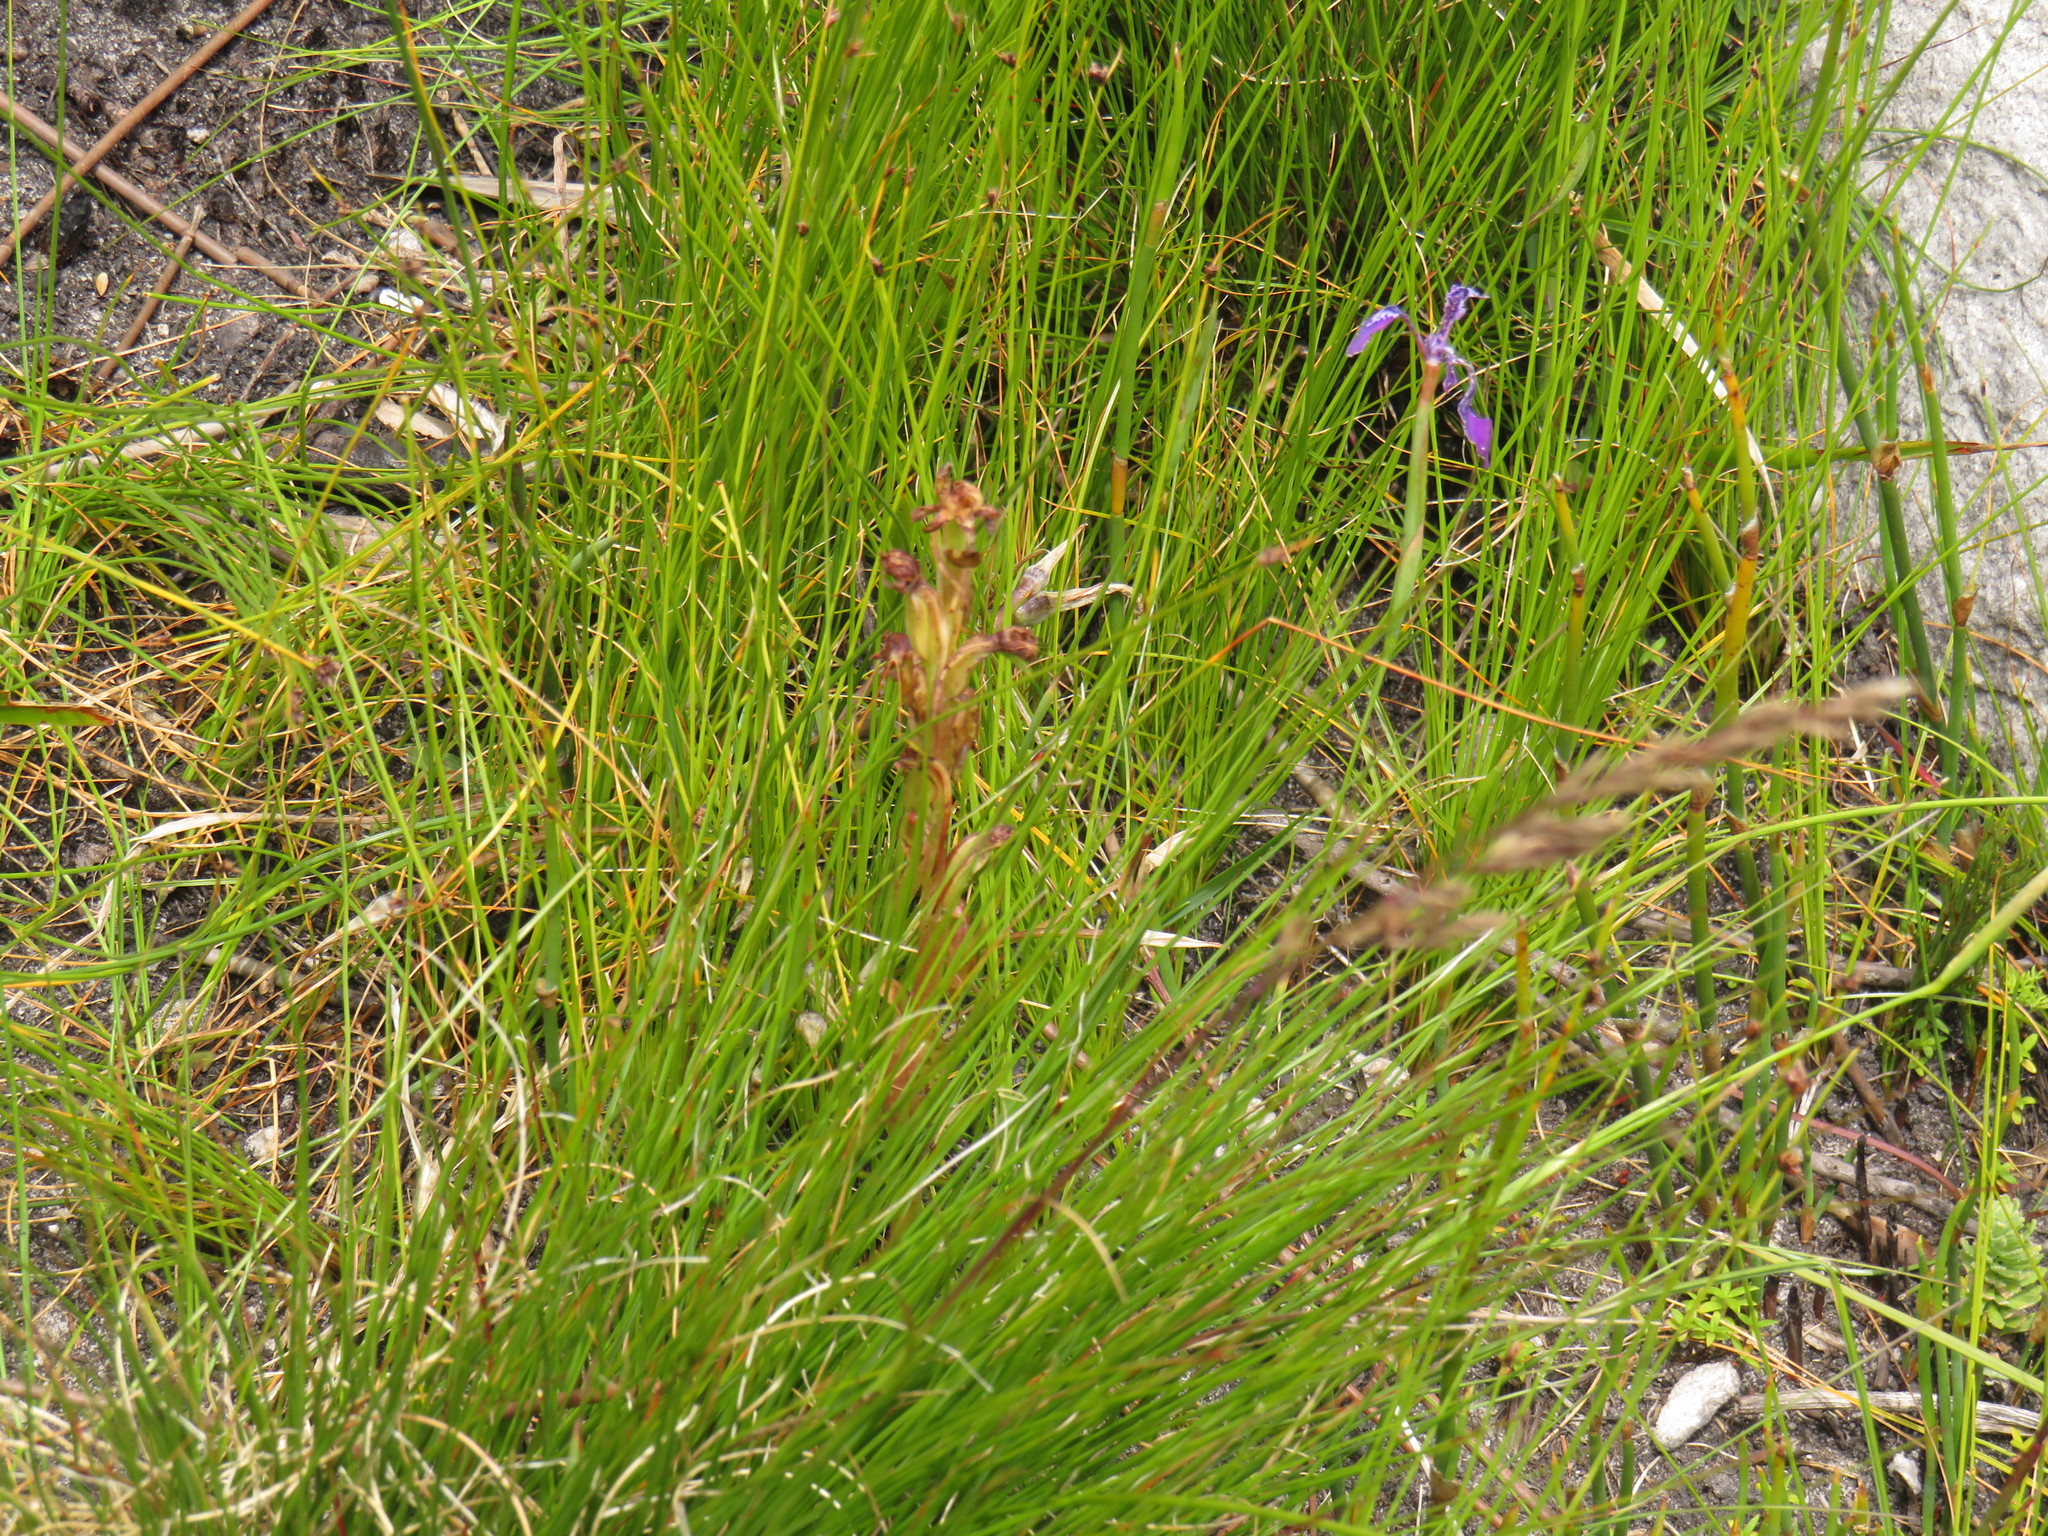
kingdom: Plantae
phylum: Tracheophyta
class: Liliopsida
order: Asparagales
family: Iridaceae
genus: Moraea
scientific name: Moraea tripetala
